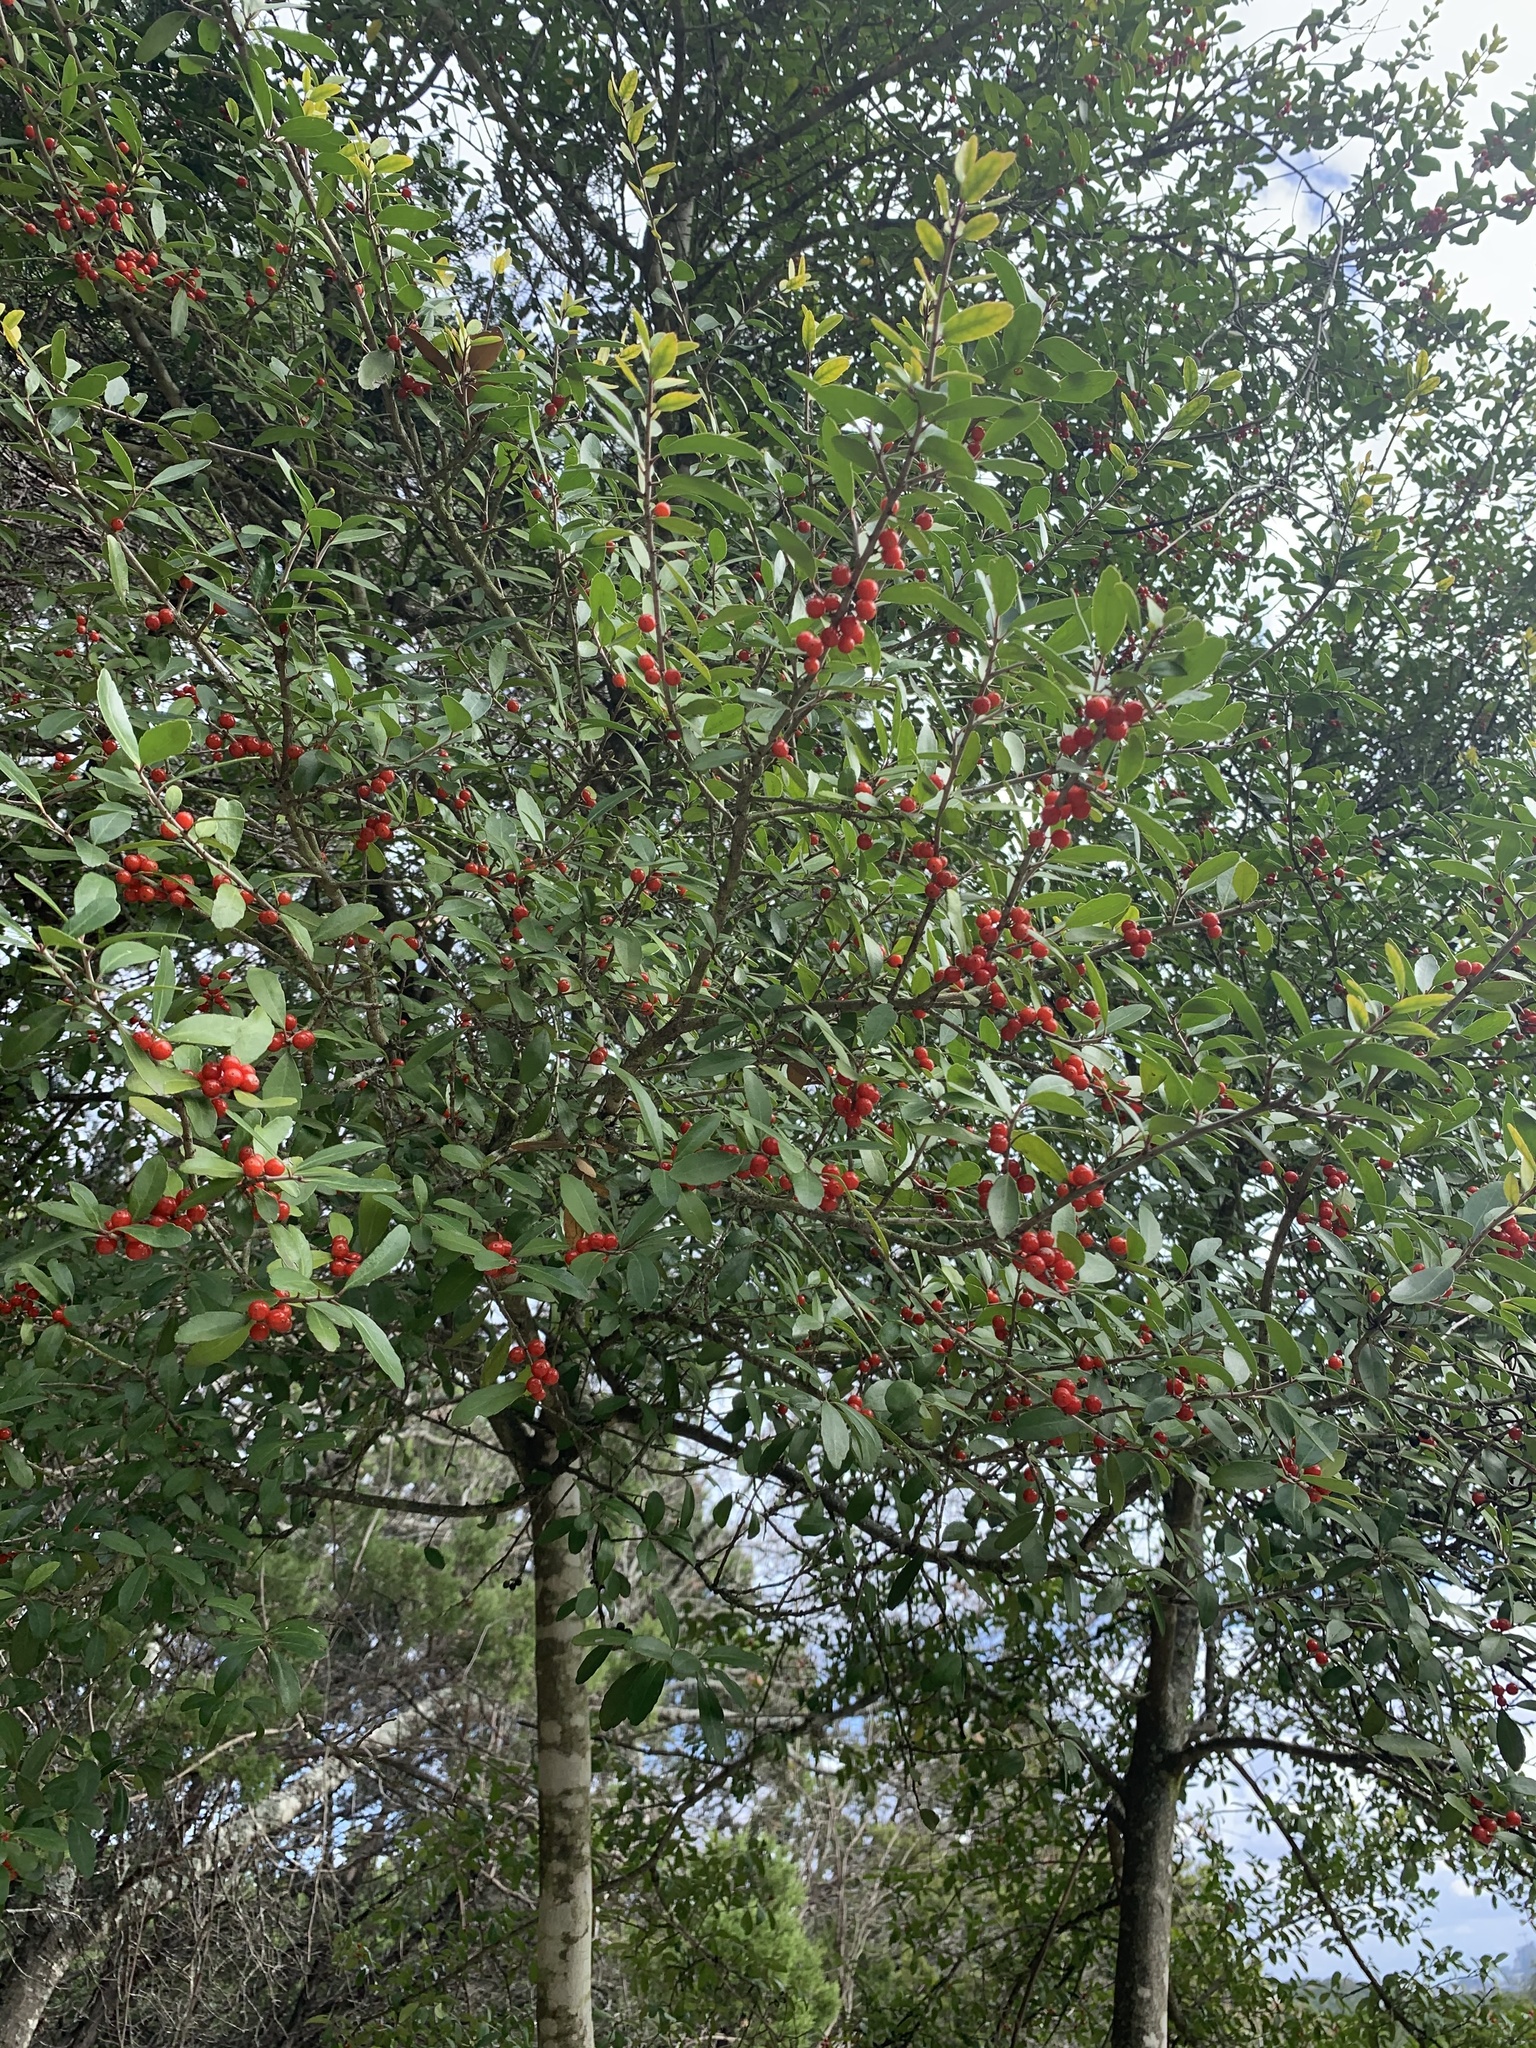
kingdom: Plantae
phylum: Tracheophyta
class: Magnoliopsida
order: Aquifoliales
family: Aquifoliaceae
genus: Ilex
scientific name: Ilex vomitoria
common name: Yaupon holly
